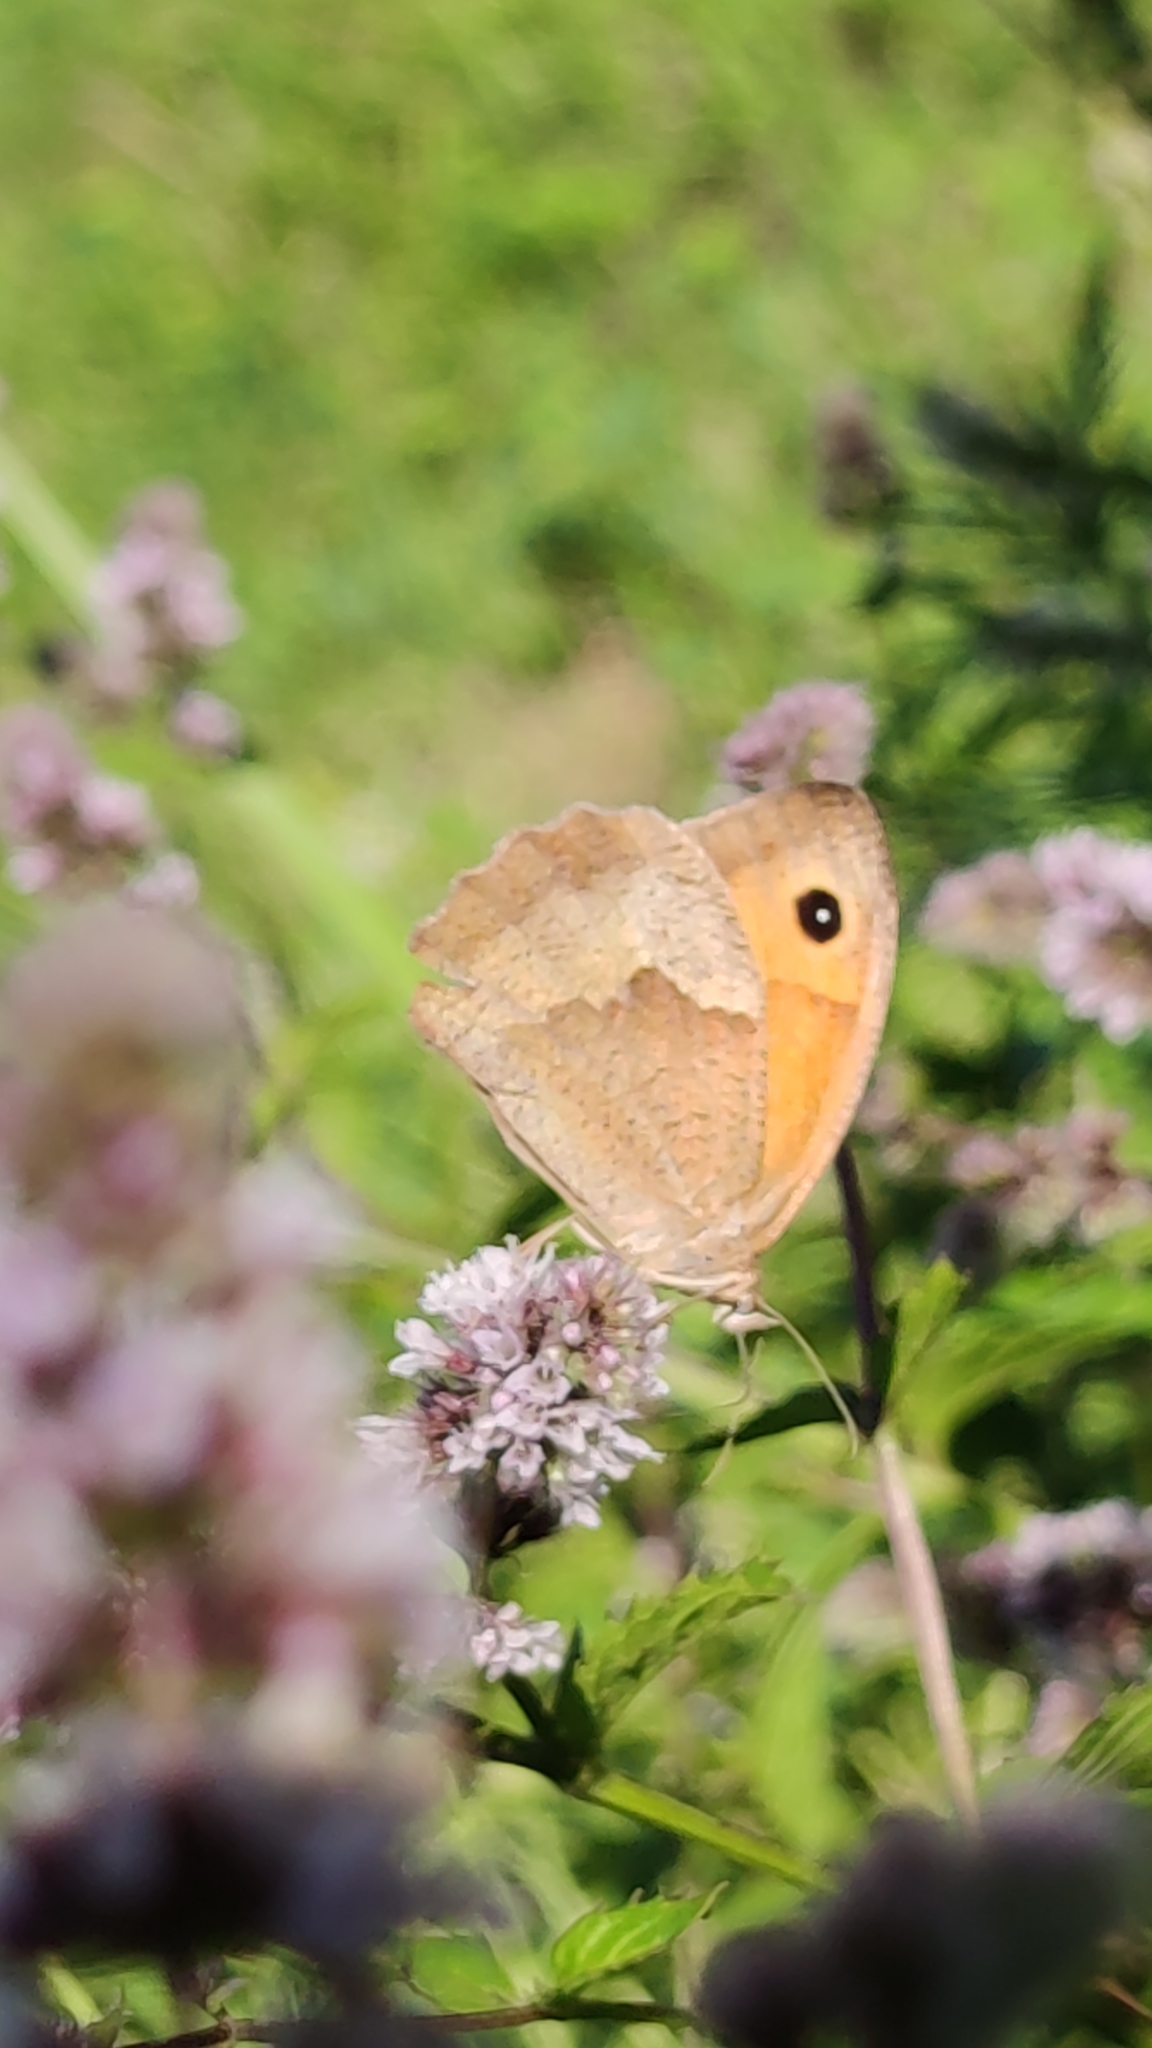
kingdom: Animalia
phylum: Arthropoda
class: Insecta
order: Lepidoptera
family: Nymphalidae
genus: Maniola
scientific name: Maniola jurtina
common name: Meadow brown
